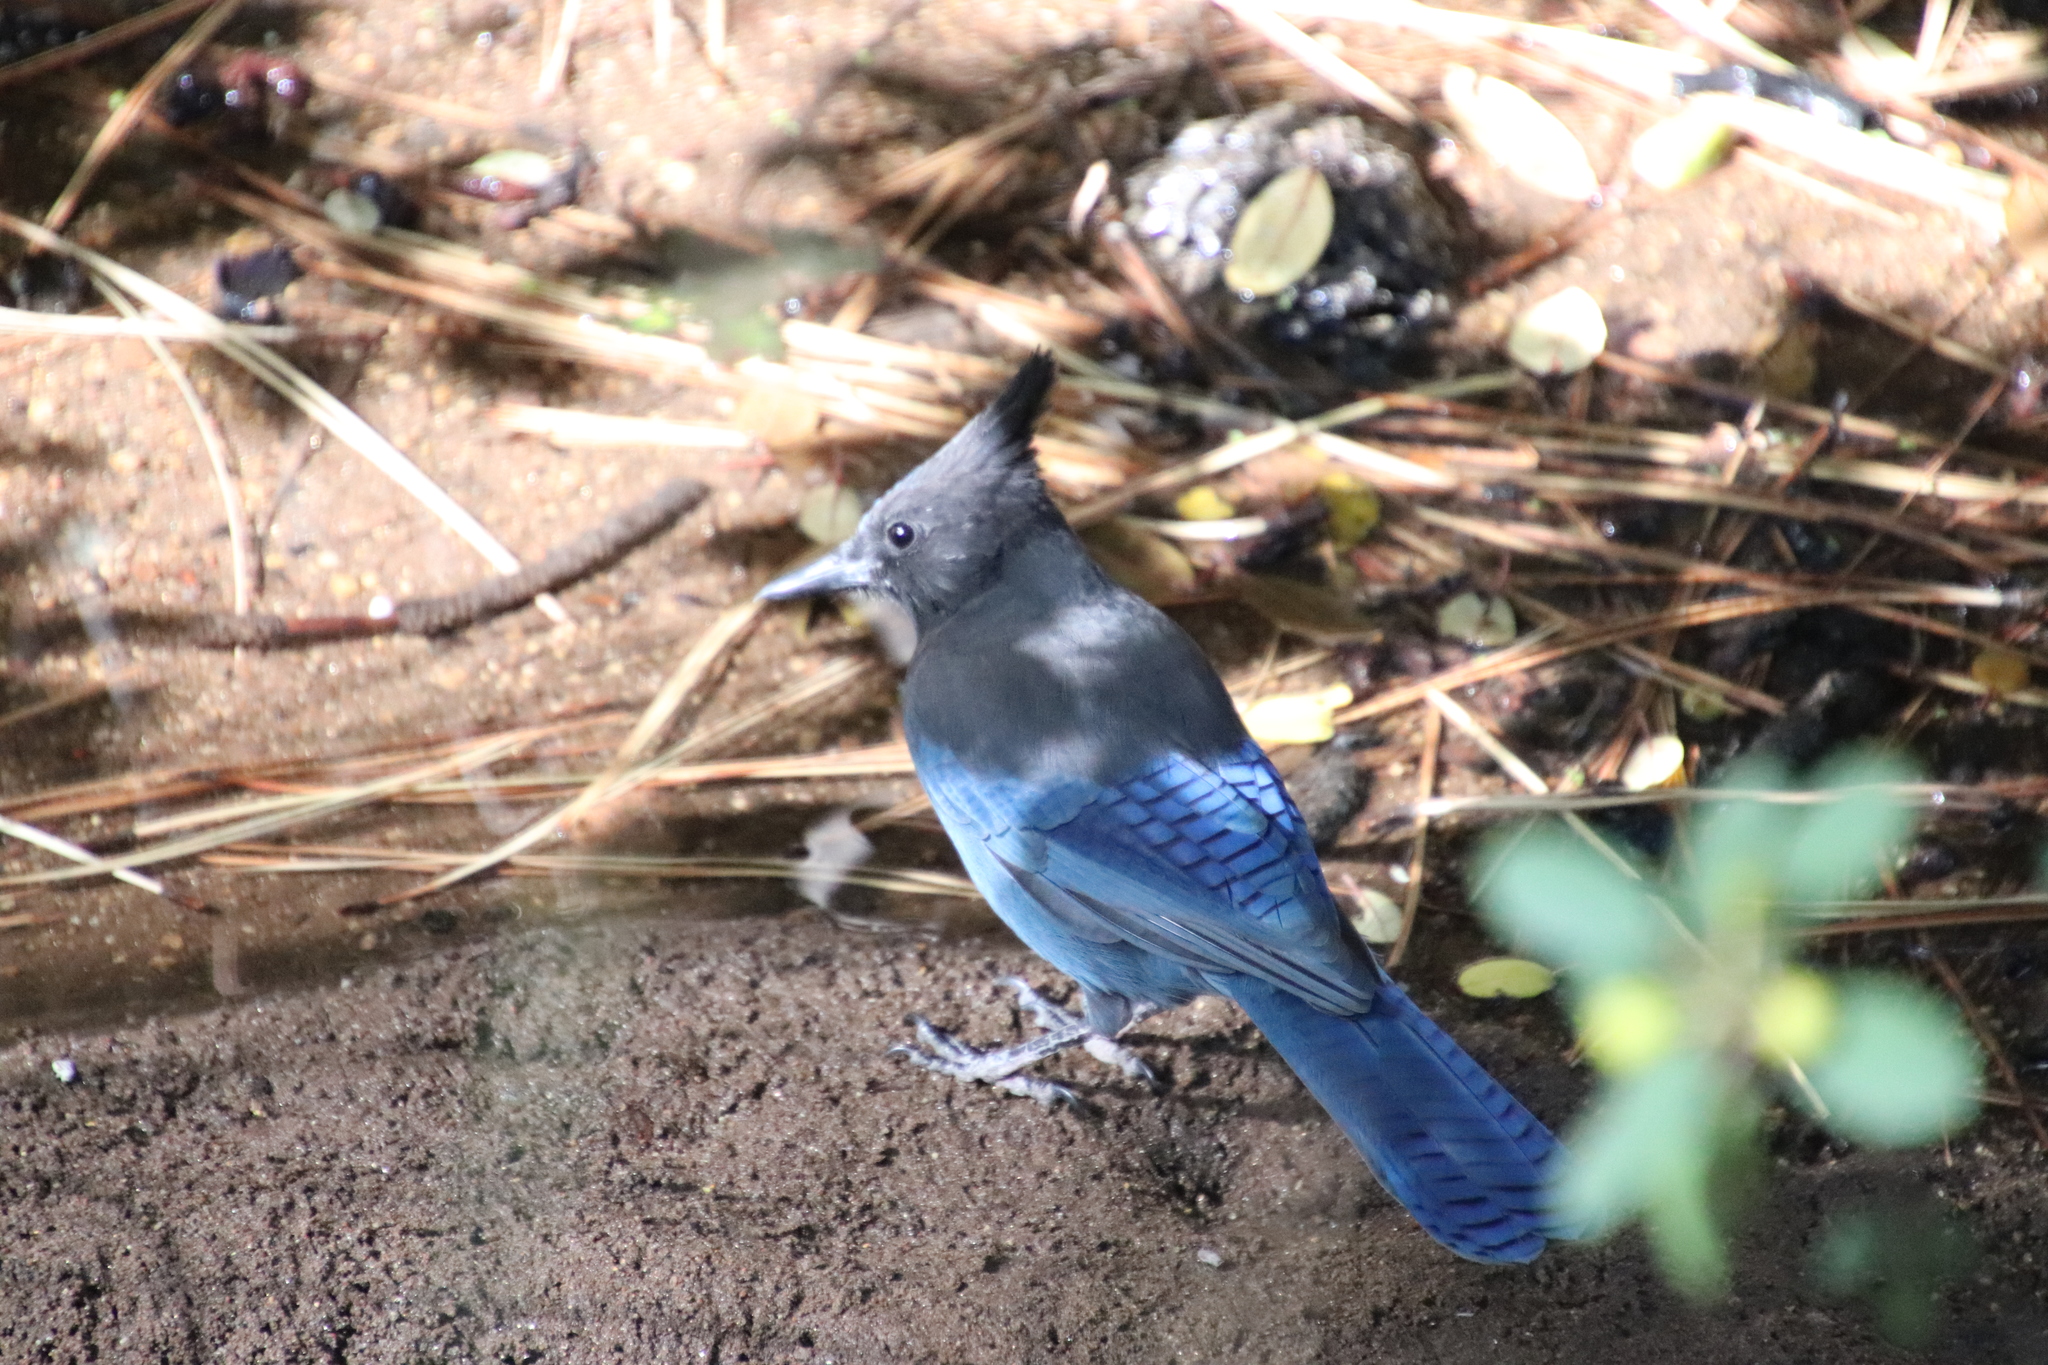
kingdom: Animalia
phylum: Chordata
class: Aves
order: Passeriformes
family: Corvidae
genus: Cyanocitta
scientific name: Cyanocitta stelleri
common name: Steller's jay
